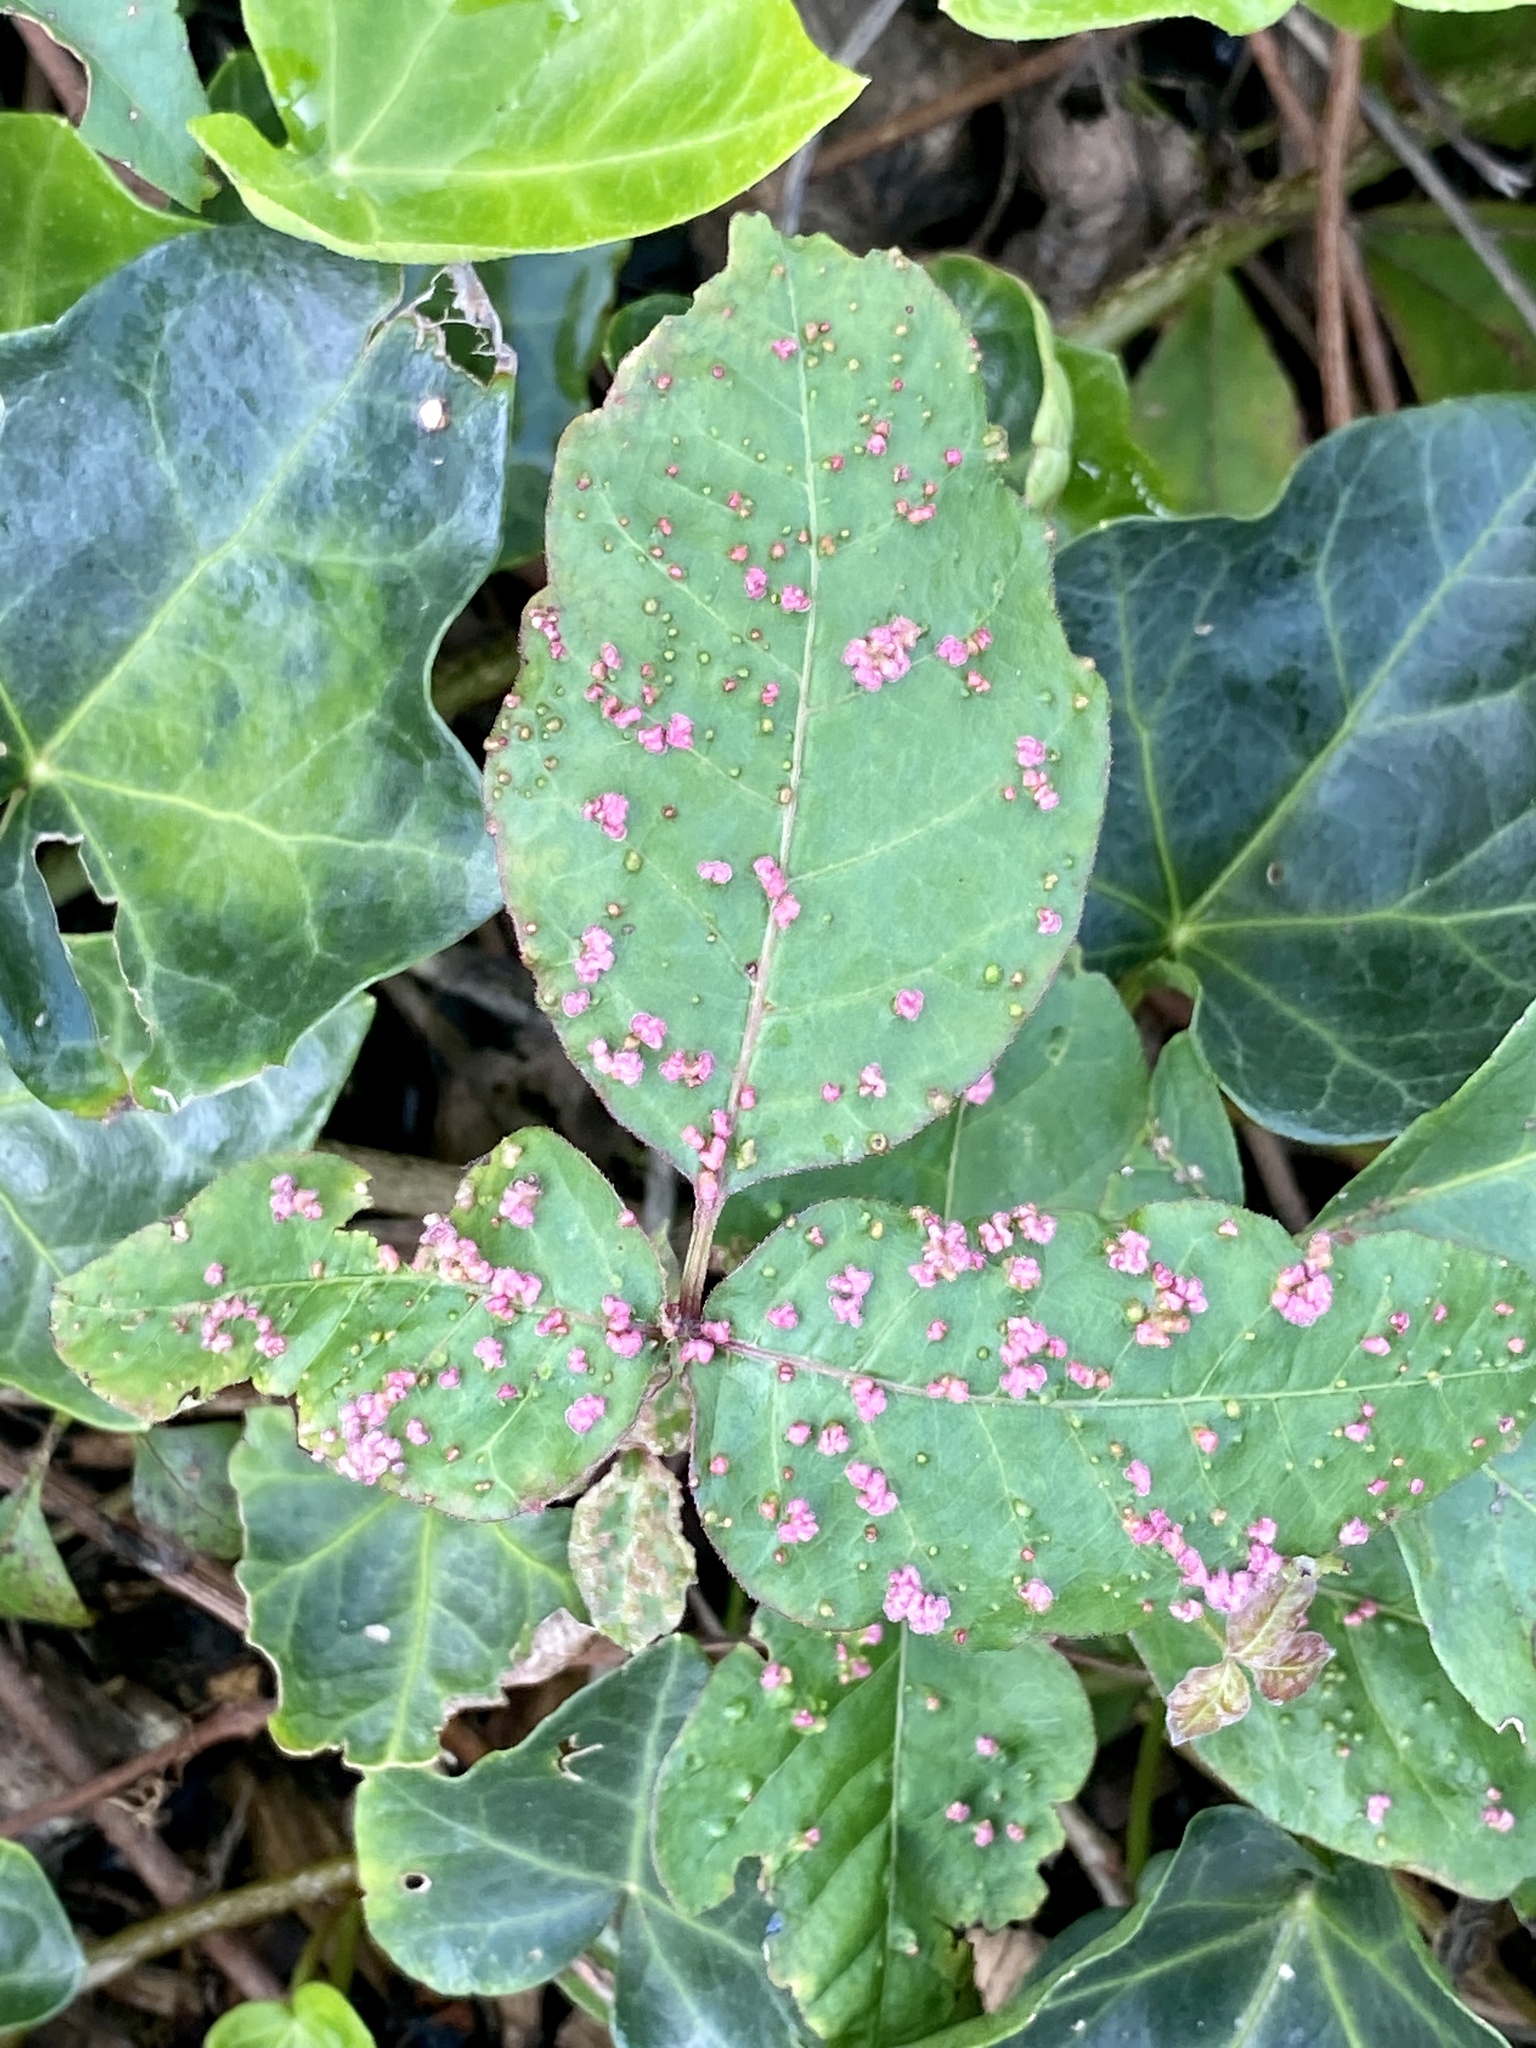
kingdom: Animalia
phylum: Arthropoda
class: Arachnida
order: Trombidiformes
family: Eriophyidae
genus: Aculops
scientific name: Aculops
